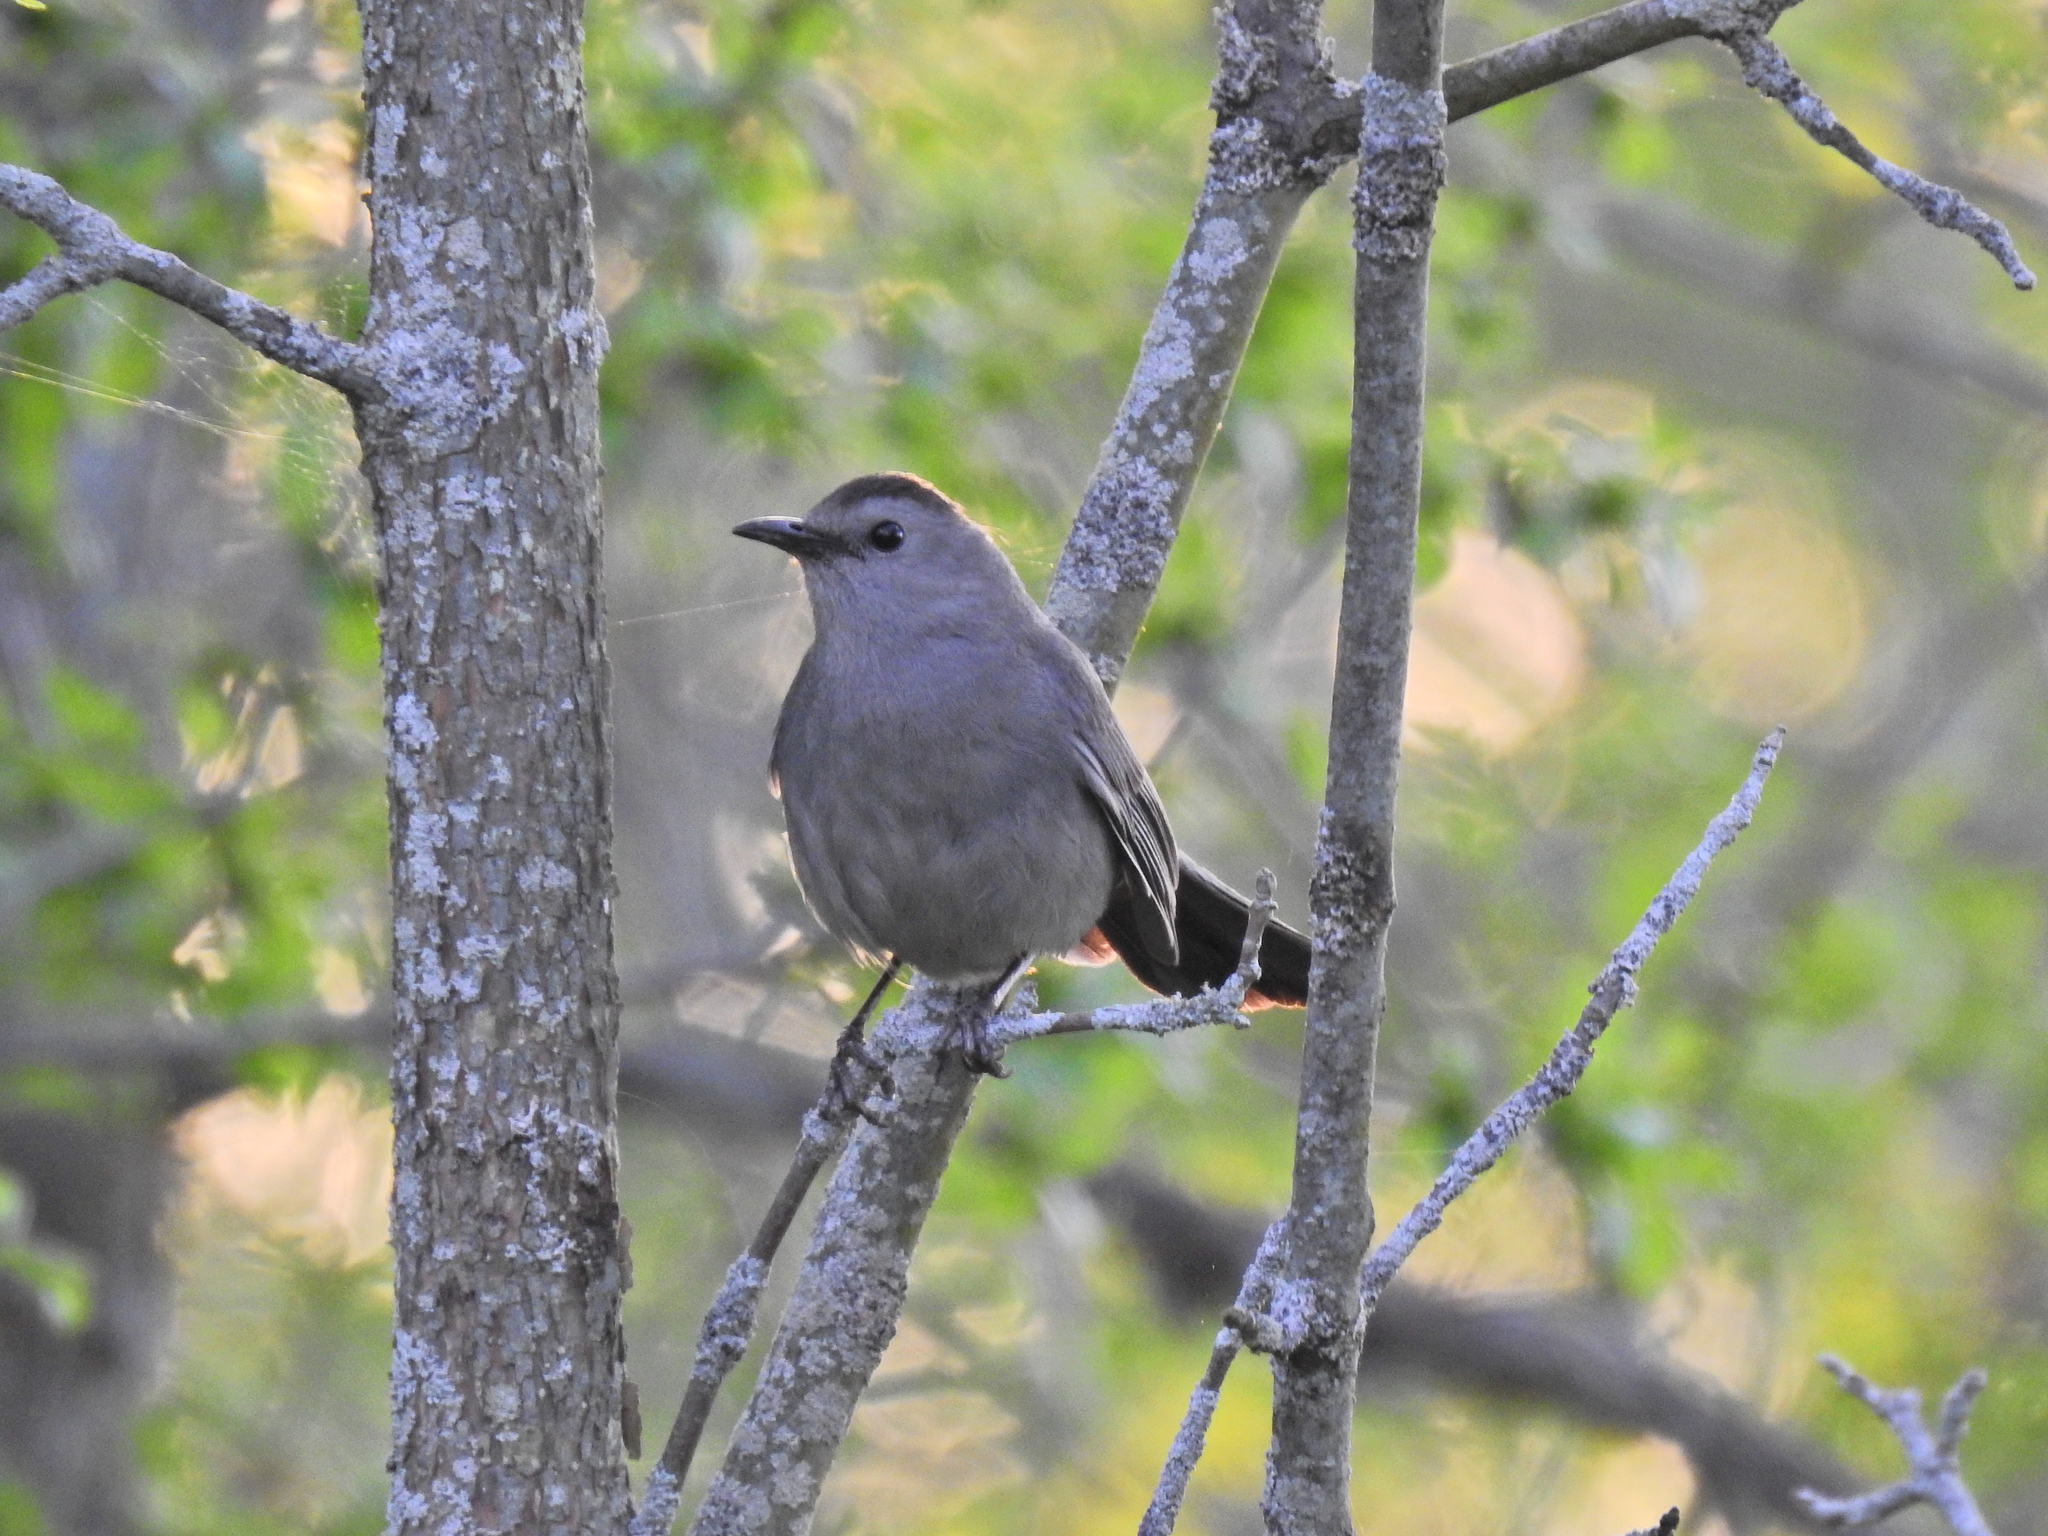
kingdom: Animalia
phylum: Chordata
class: Aves
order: Passeriformes
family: Mimidae
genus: Dumetella
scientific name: Dumetella carolinensis
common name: Gray catbird
